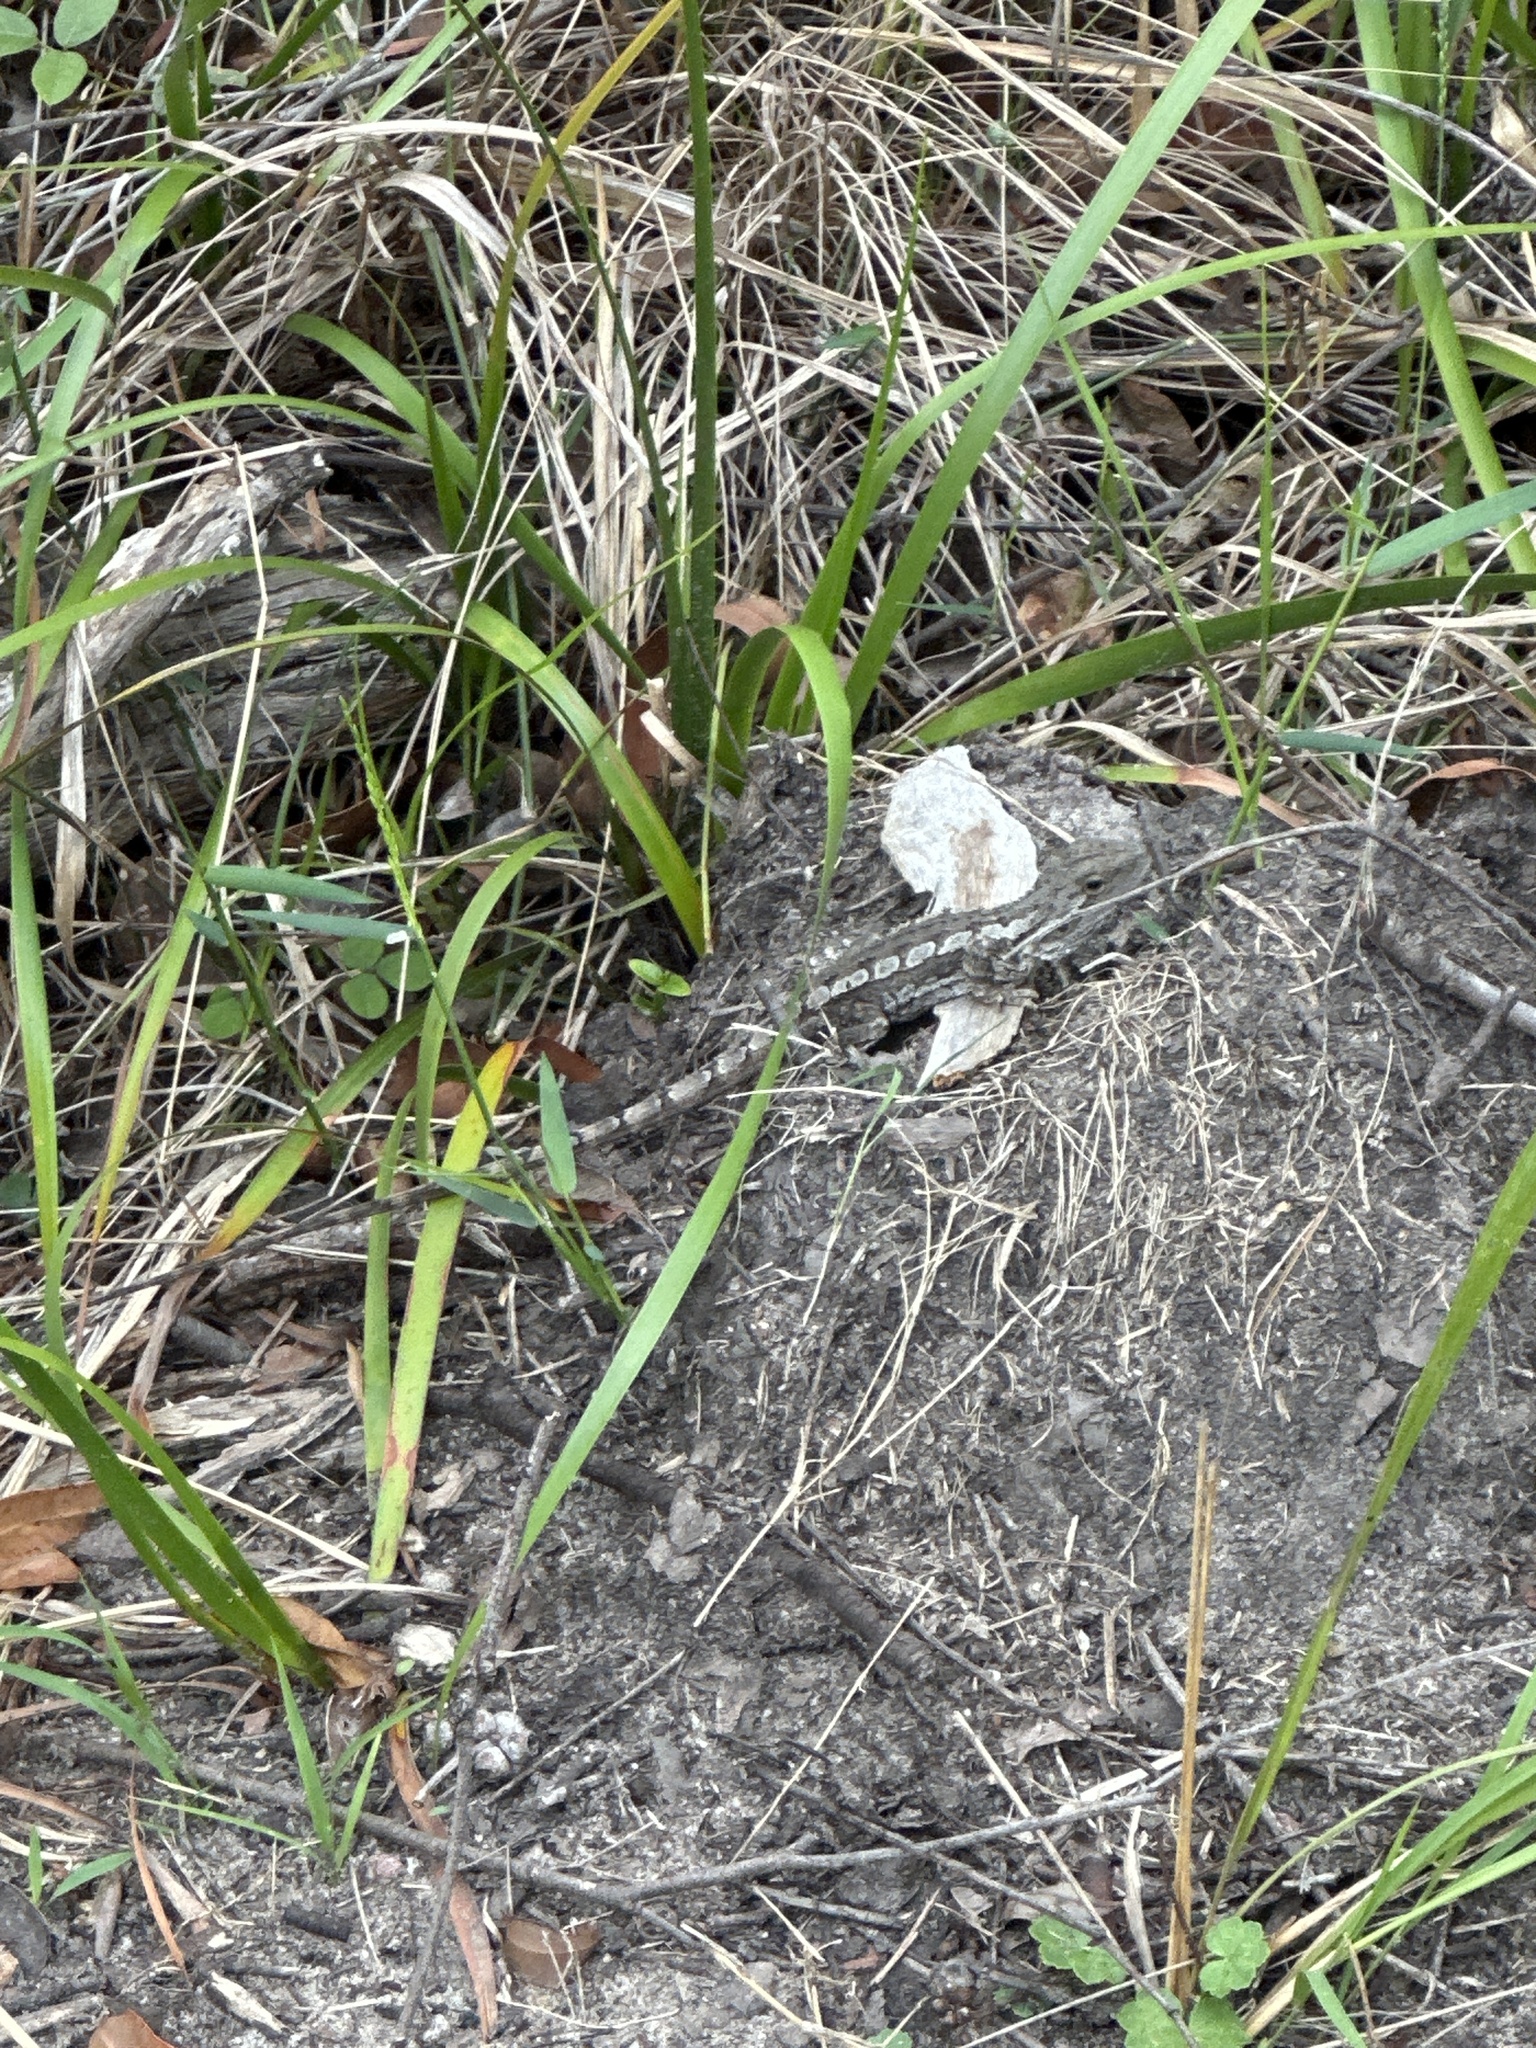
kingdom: Animalia
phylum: Chordata
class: Squamata
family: Agamidae
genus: Amphibolurus
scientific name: Amphibolurus muricatus
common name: Jacky lizard
